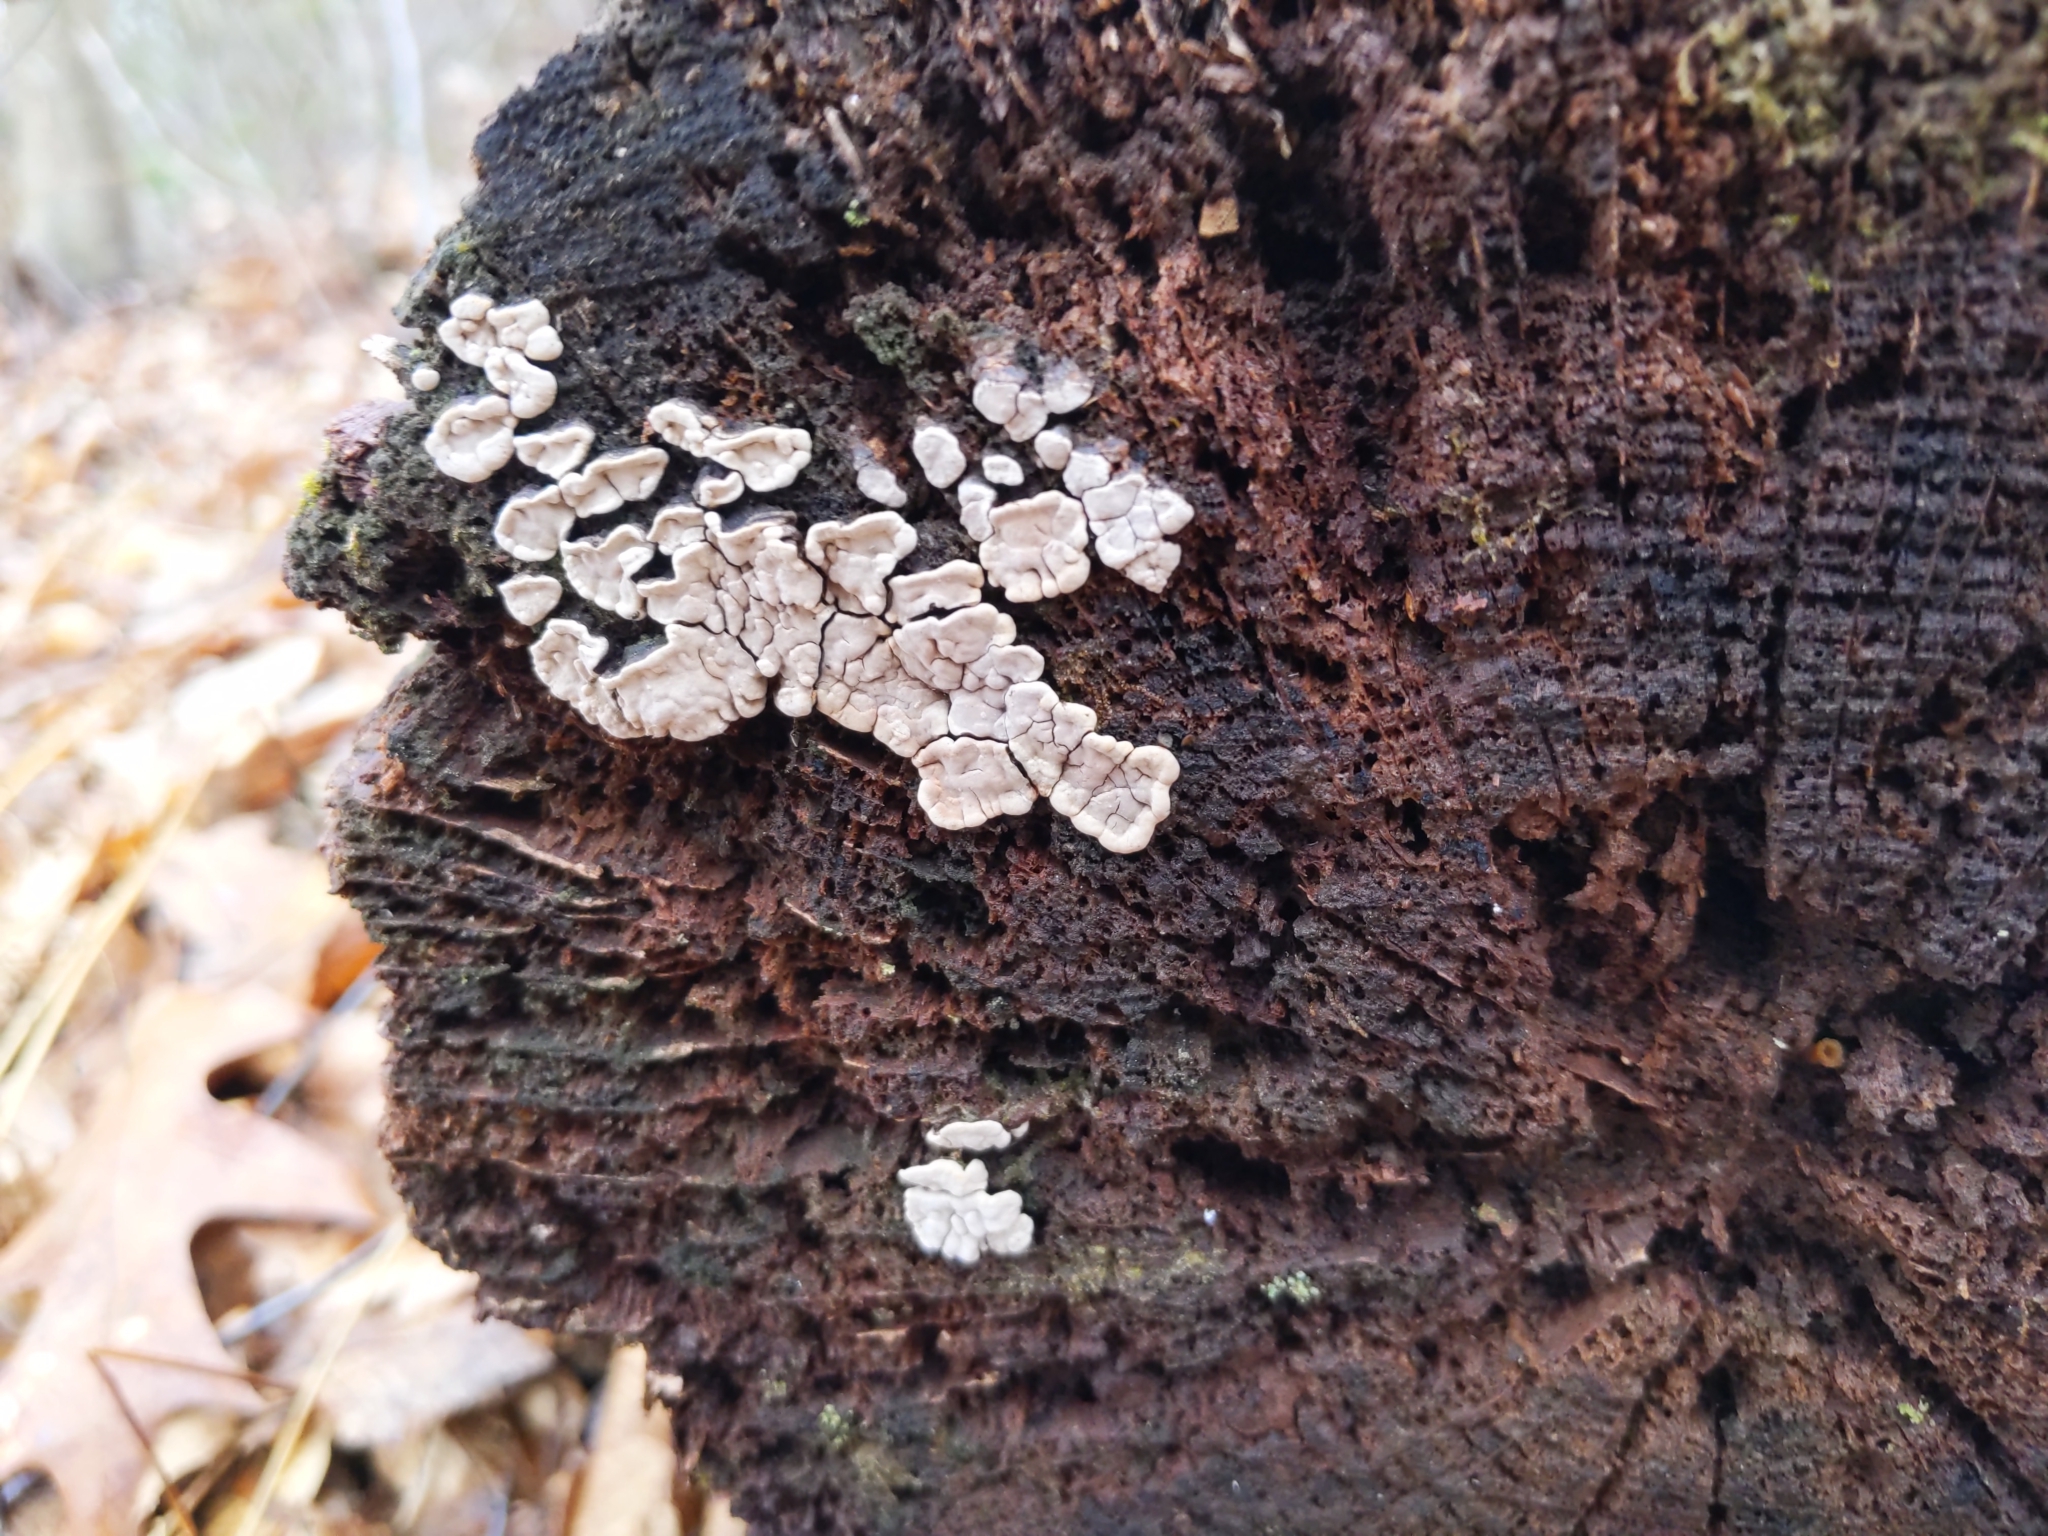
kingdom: Fungi
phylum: Basidiomycota
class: Agaricomycetes
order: Russulales
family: Stereaceae
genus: Xylobolus
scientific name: Xylobolus frustulatus
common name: Ceramic parchment
